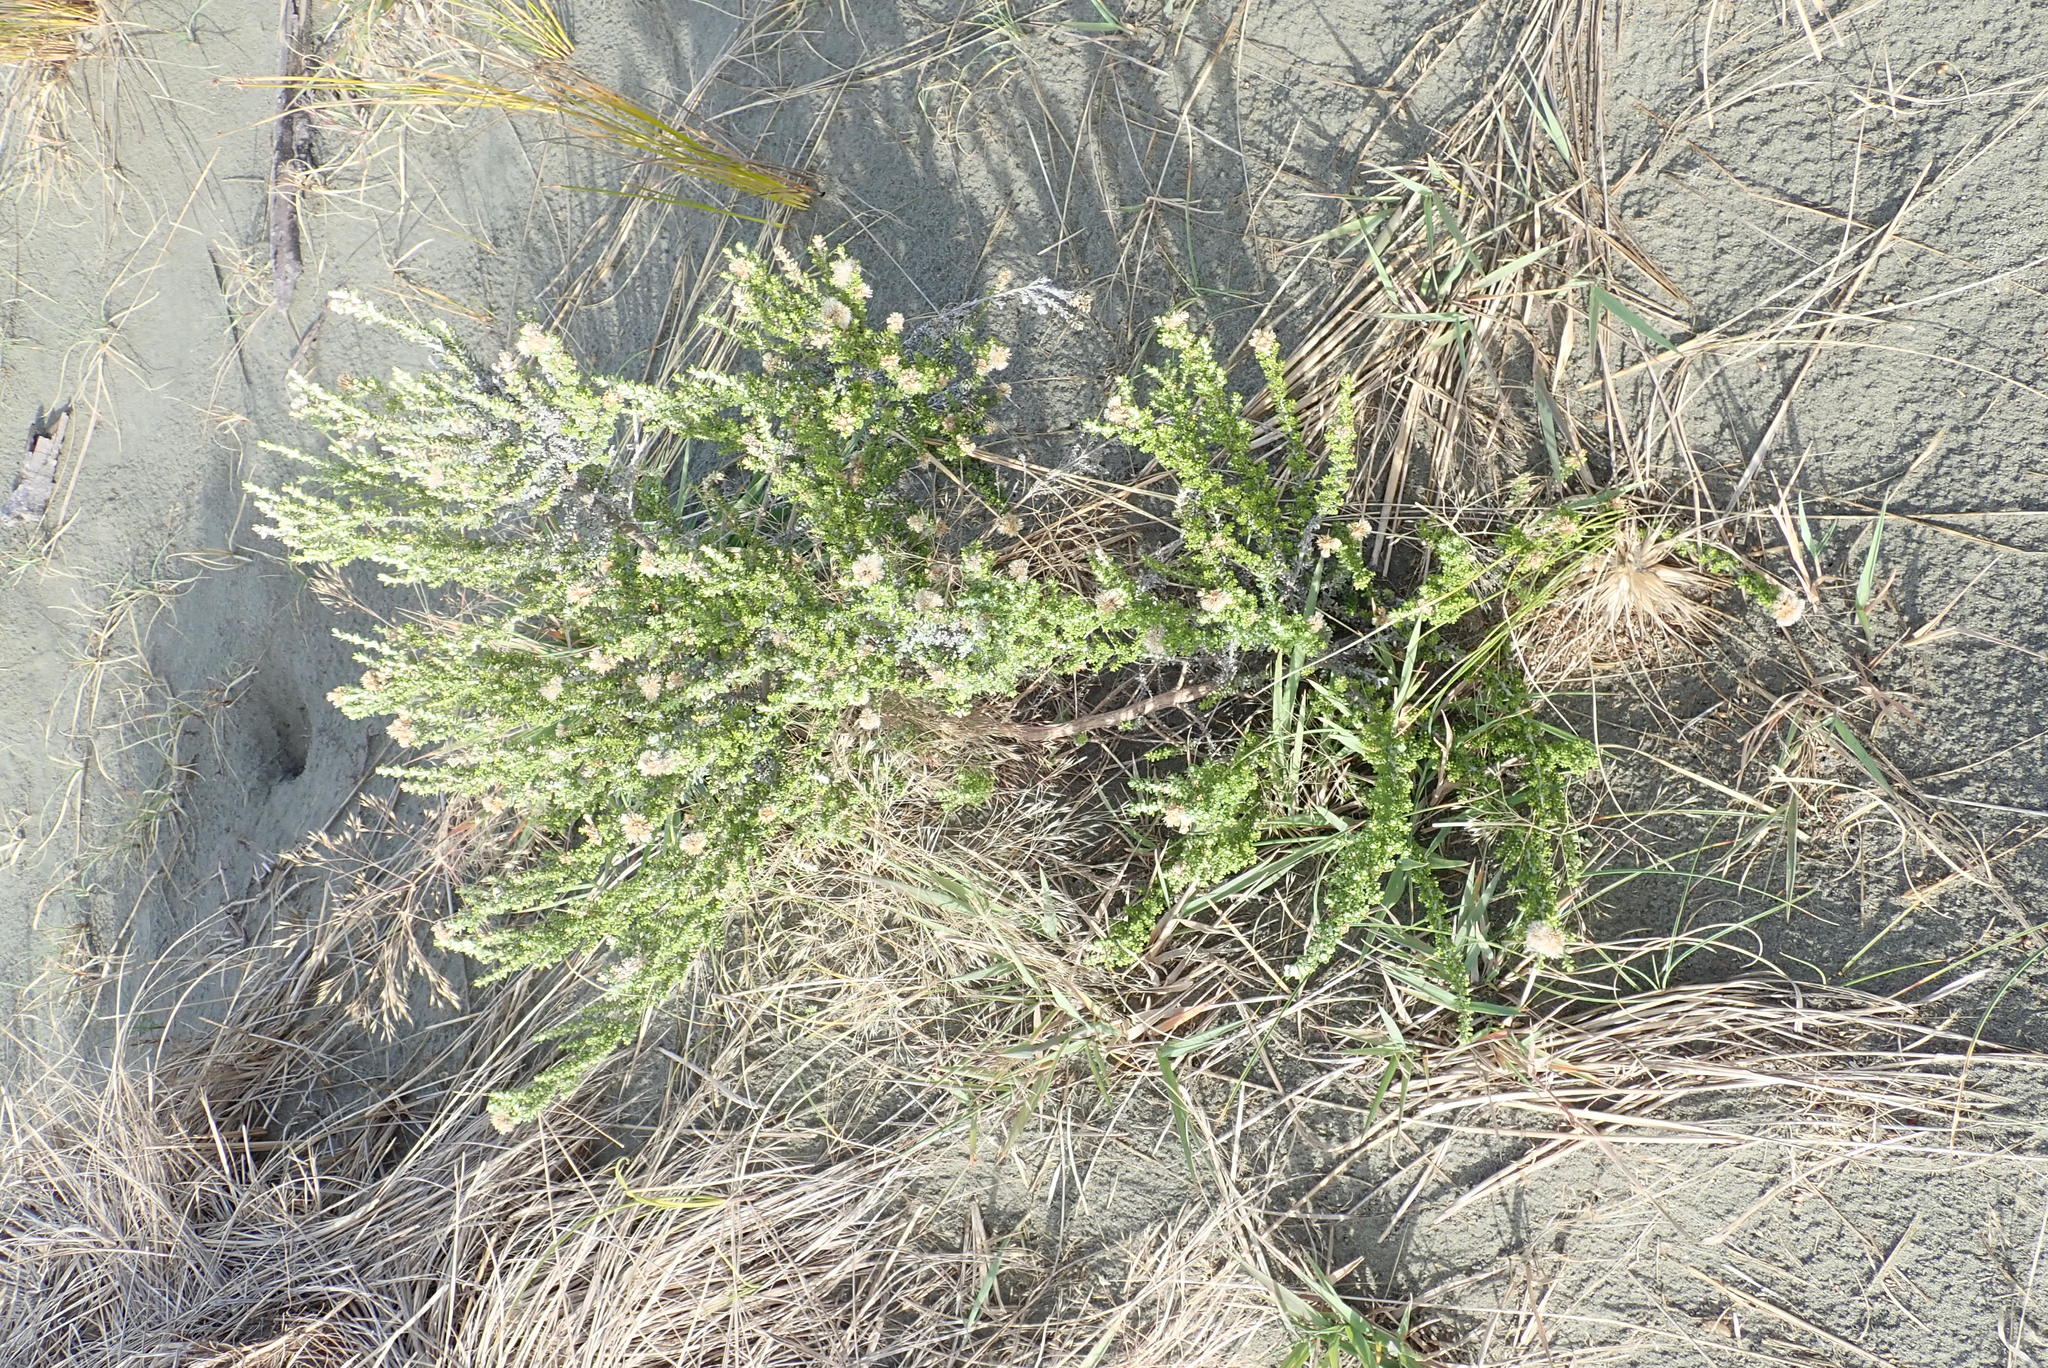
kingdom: Plantae
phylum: Tracheophyta
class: Magnoliopsida
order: Asterales
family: Asteraceae
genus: Ozothamnus
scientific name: Ozothamnus leptophyllus
